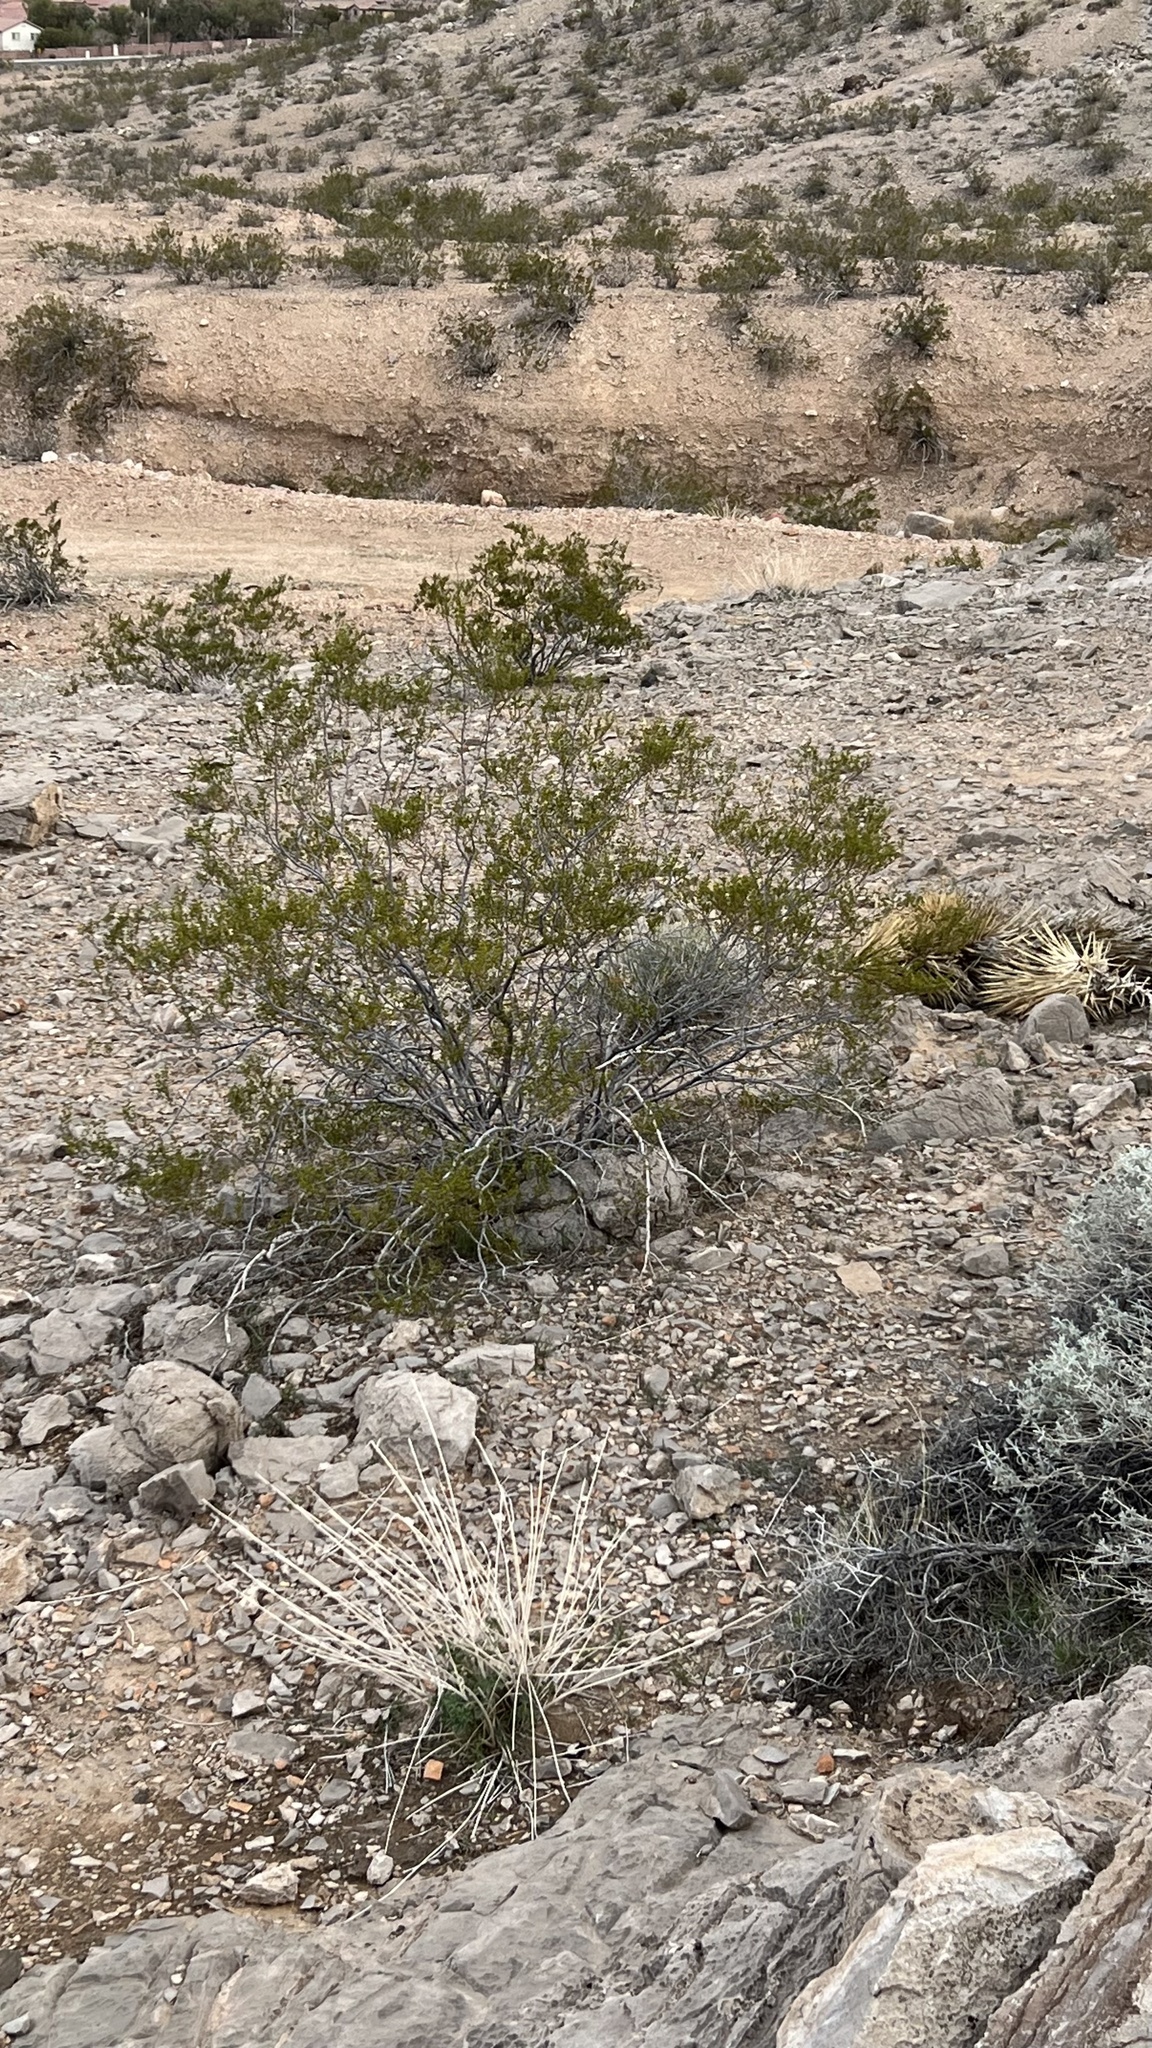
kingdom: Plantae
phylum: Tracheophyta
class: Magnoliopsida
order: Zygophyllales
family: Zygophyllaceae
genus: Larrea
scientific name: Larrea tridentata
